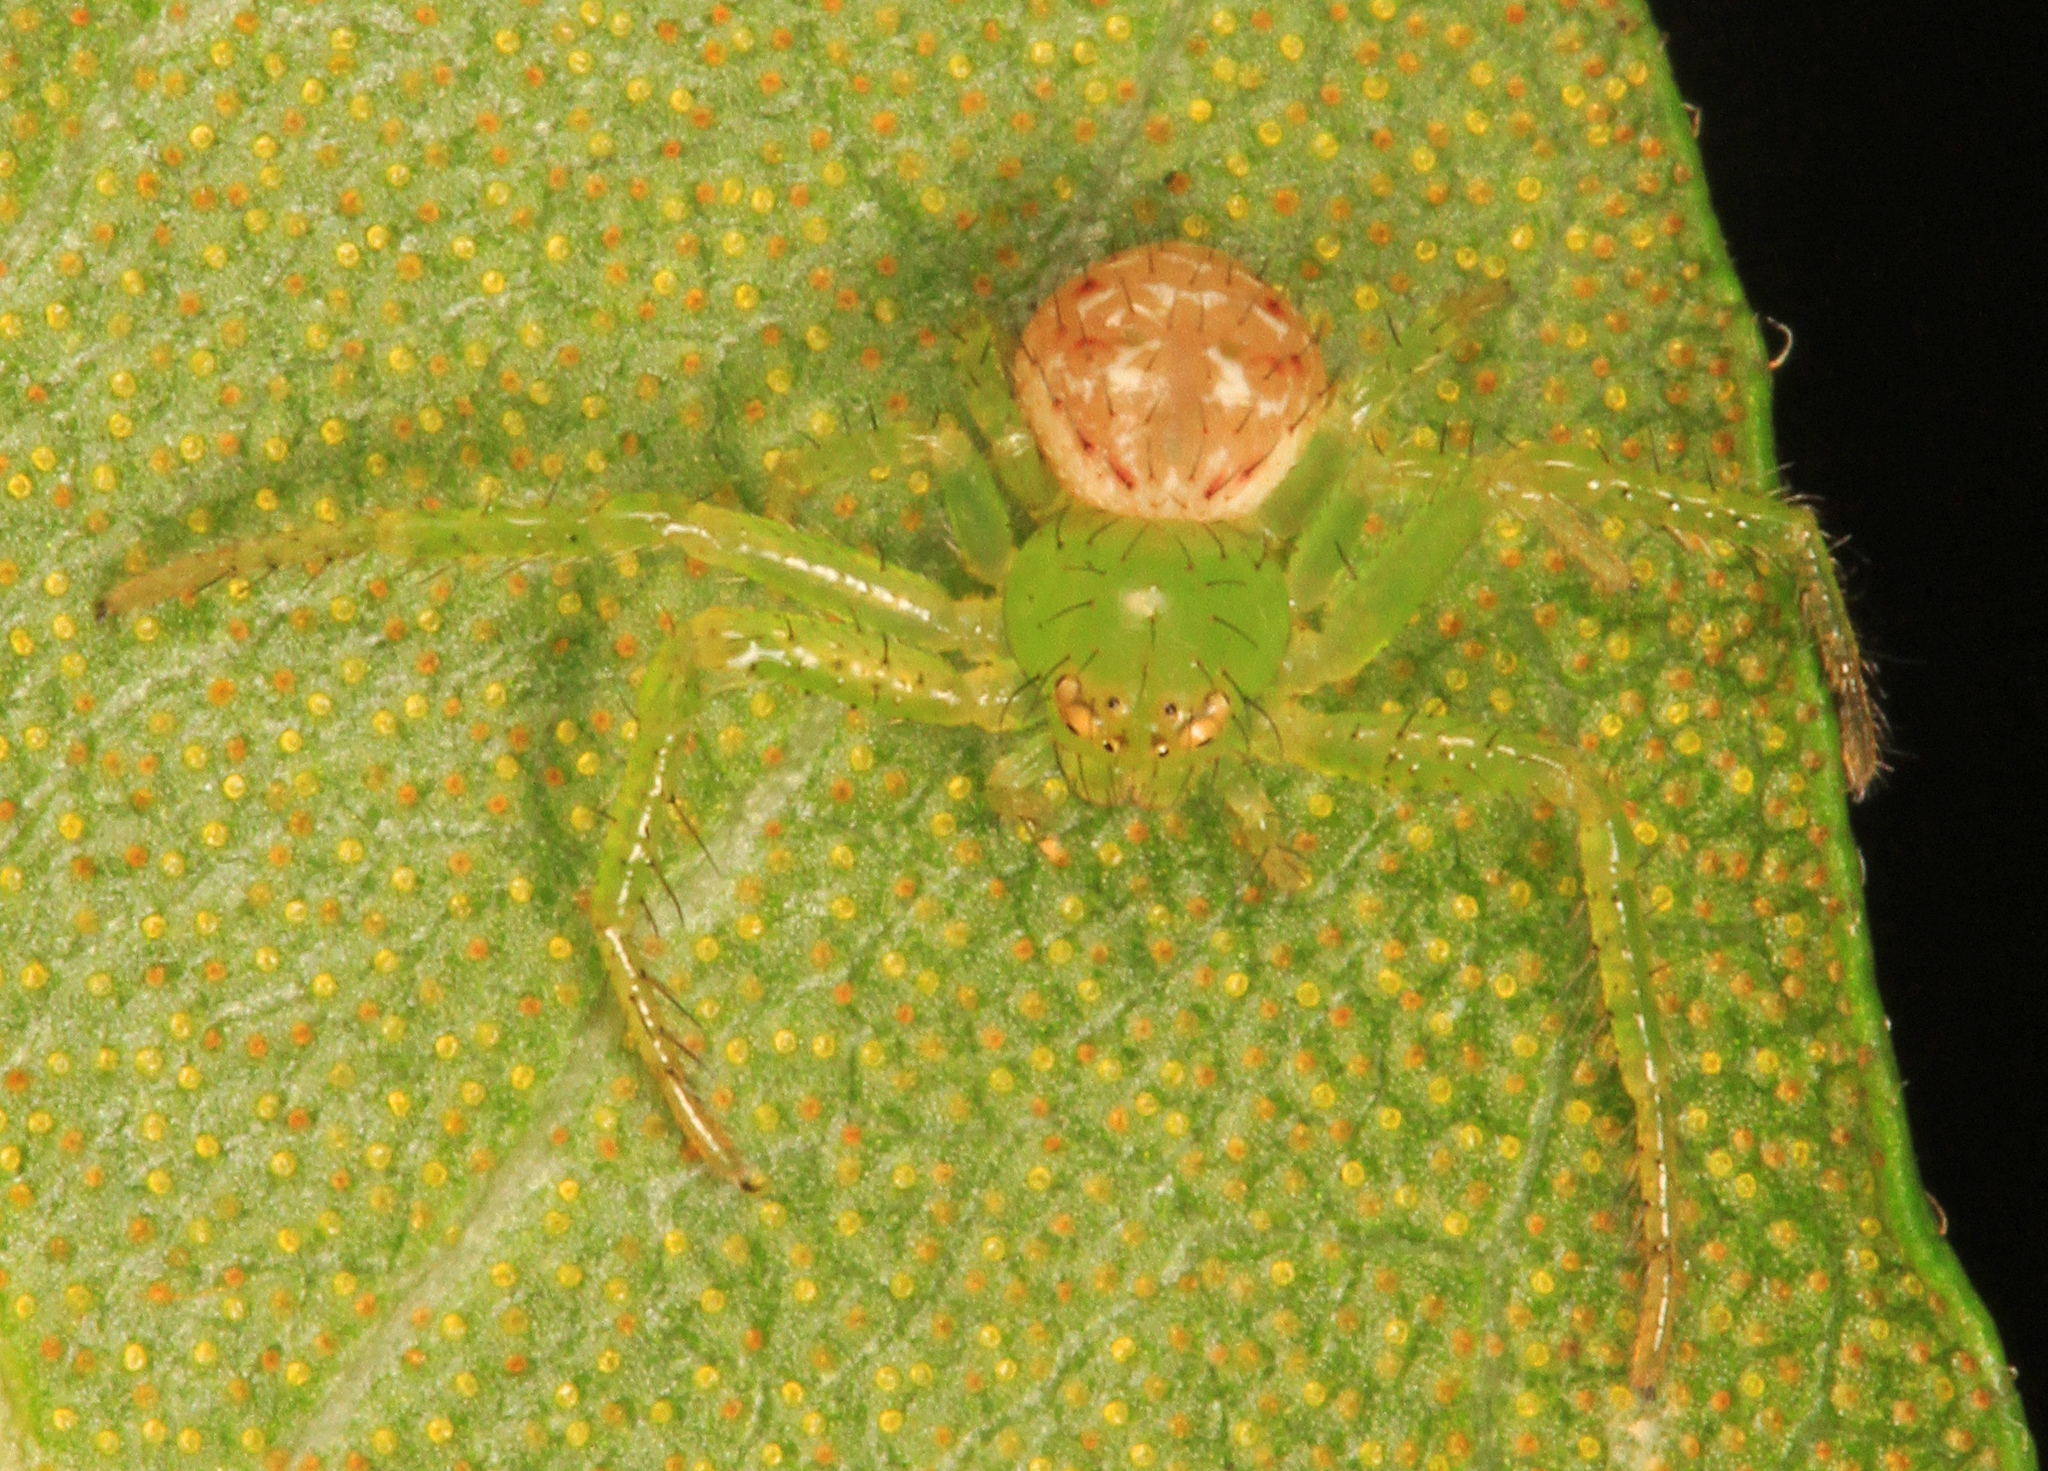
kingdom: Animalia
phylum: Arthropoda
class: Arachnida
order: Araneae
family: Thomisidae
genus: Synema
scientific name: Synema viridans
